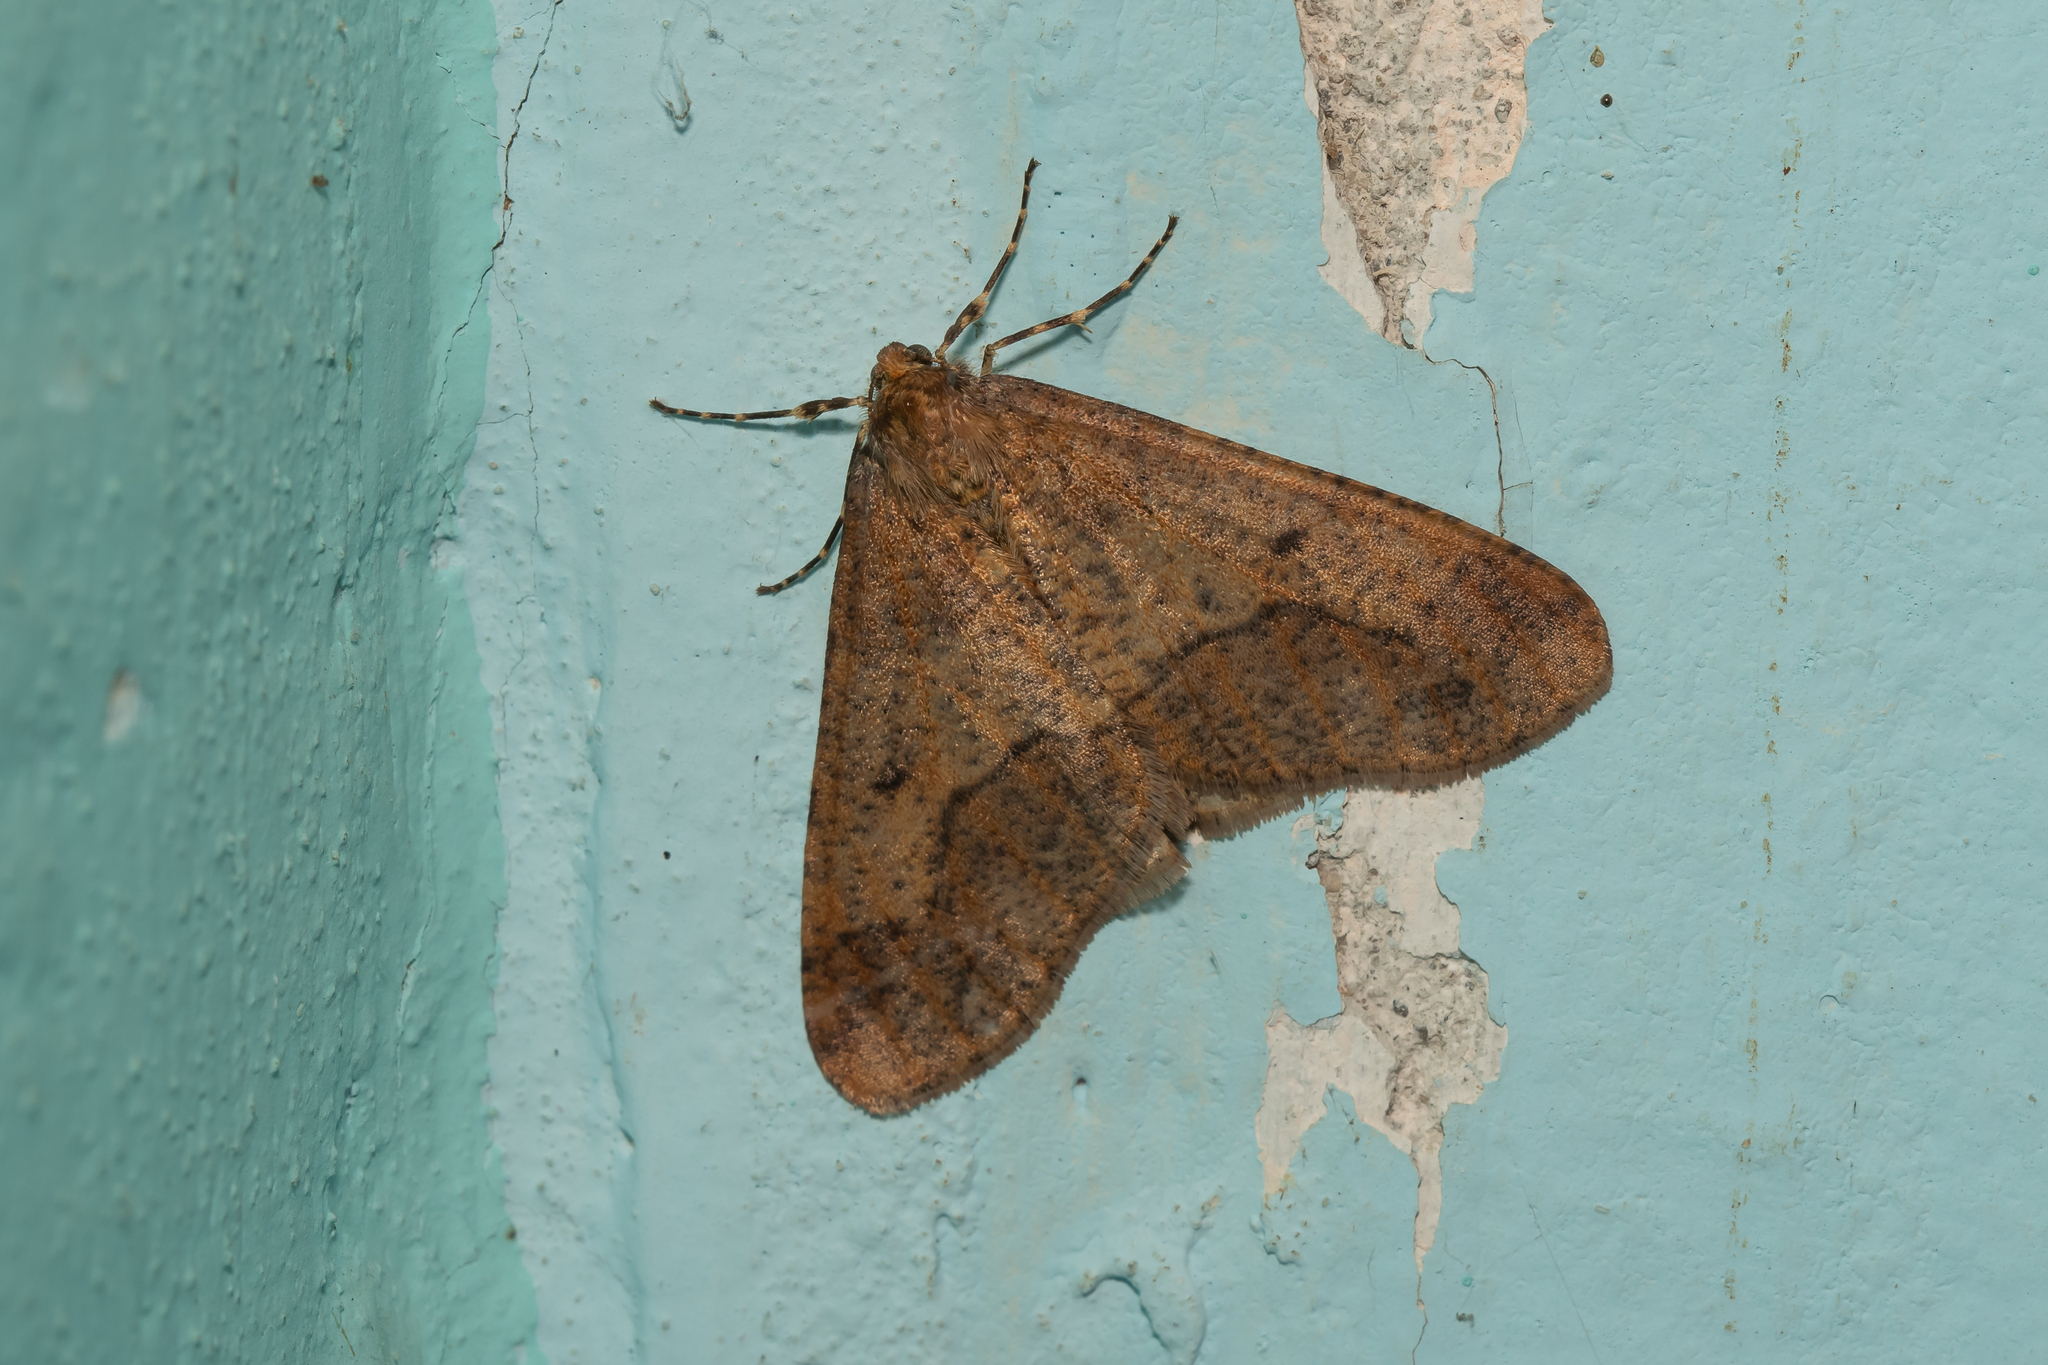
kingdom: Animalia
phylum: Arthropoda
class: Insecta
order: Lepidoptera
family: Geometridae
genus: Erannis
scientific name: Erannis defoliaria
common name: Mottled umber
